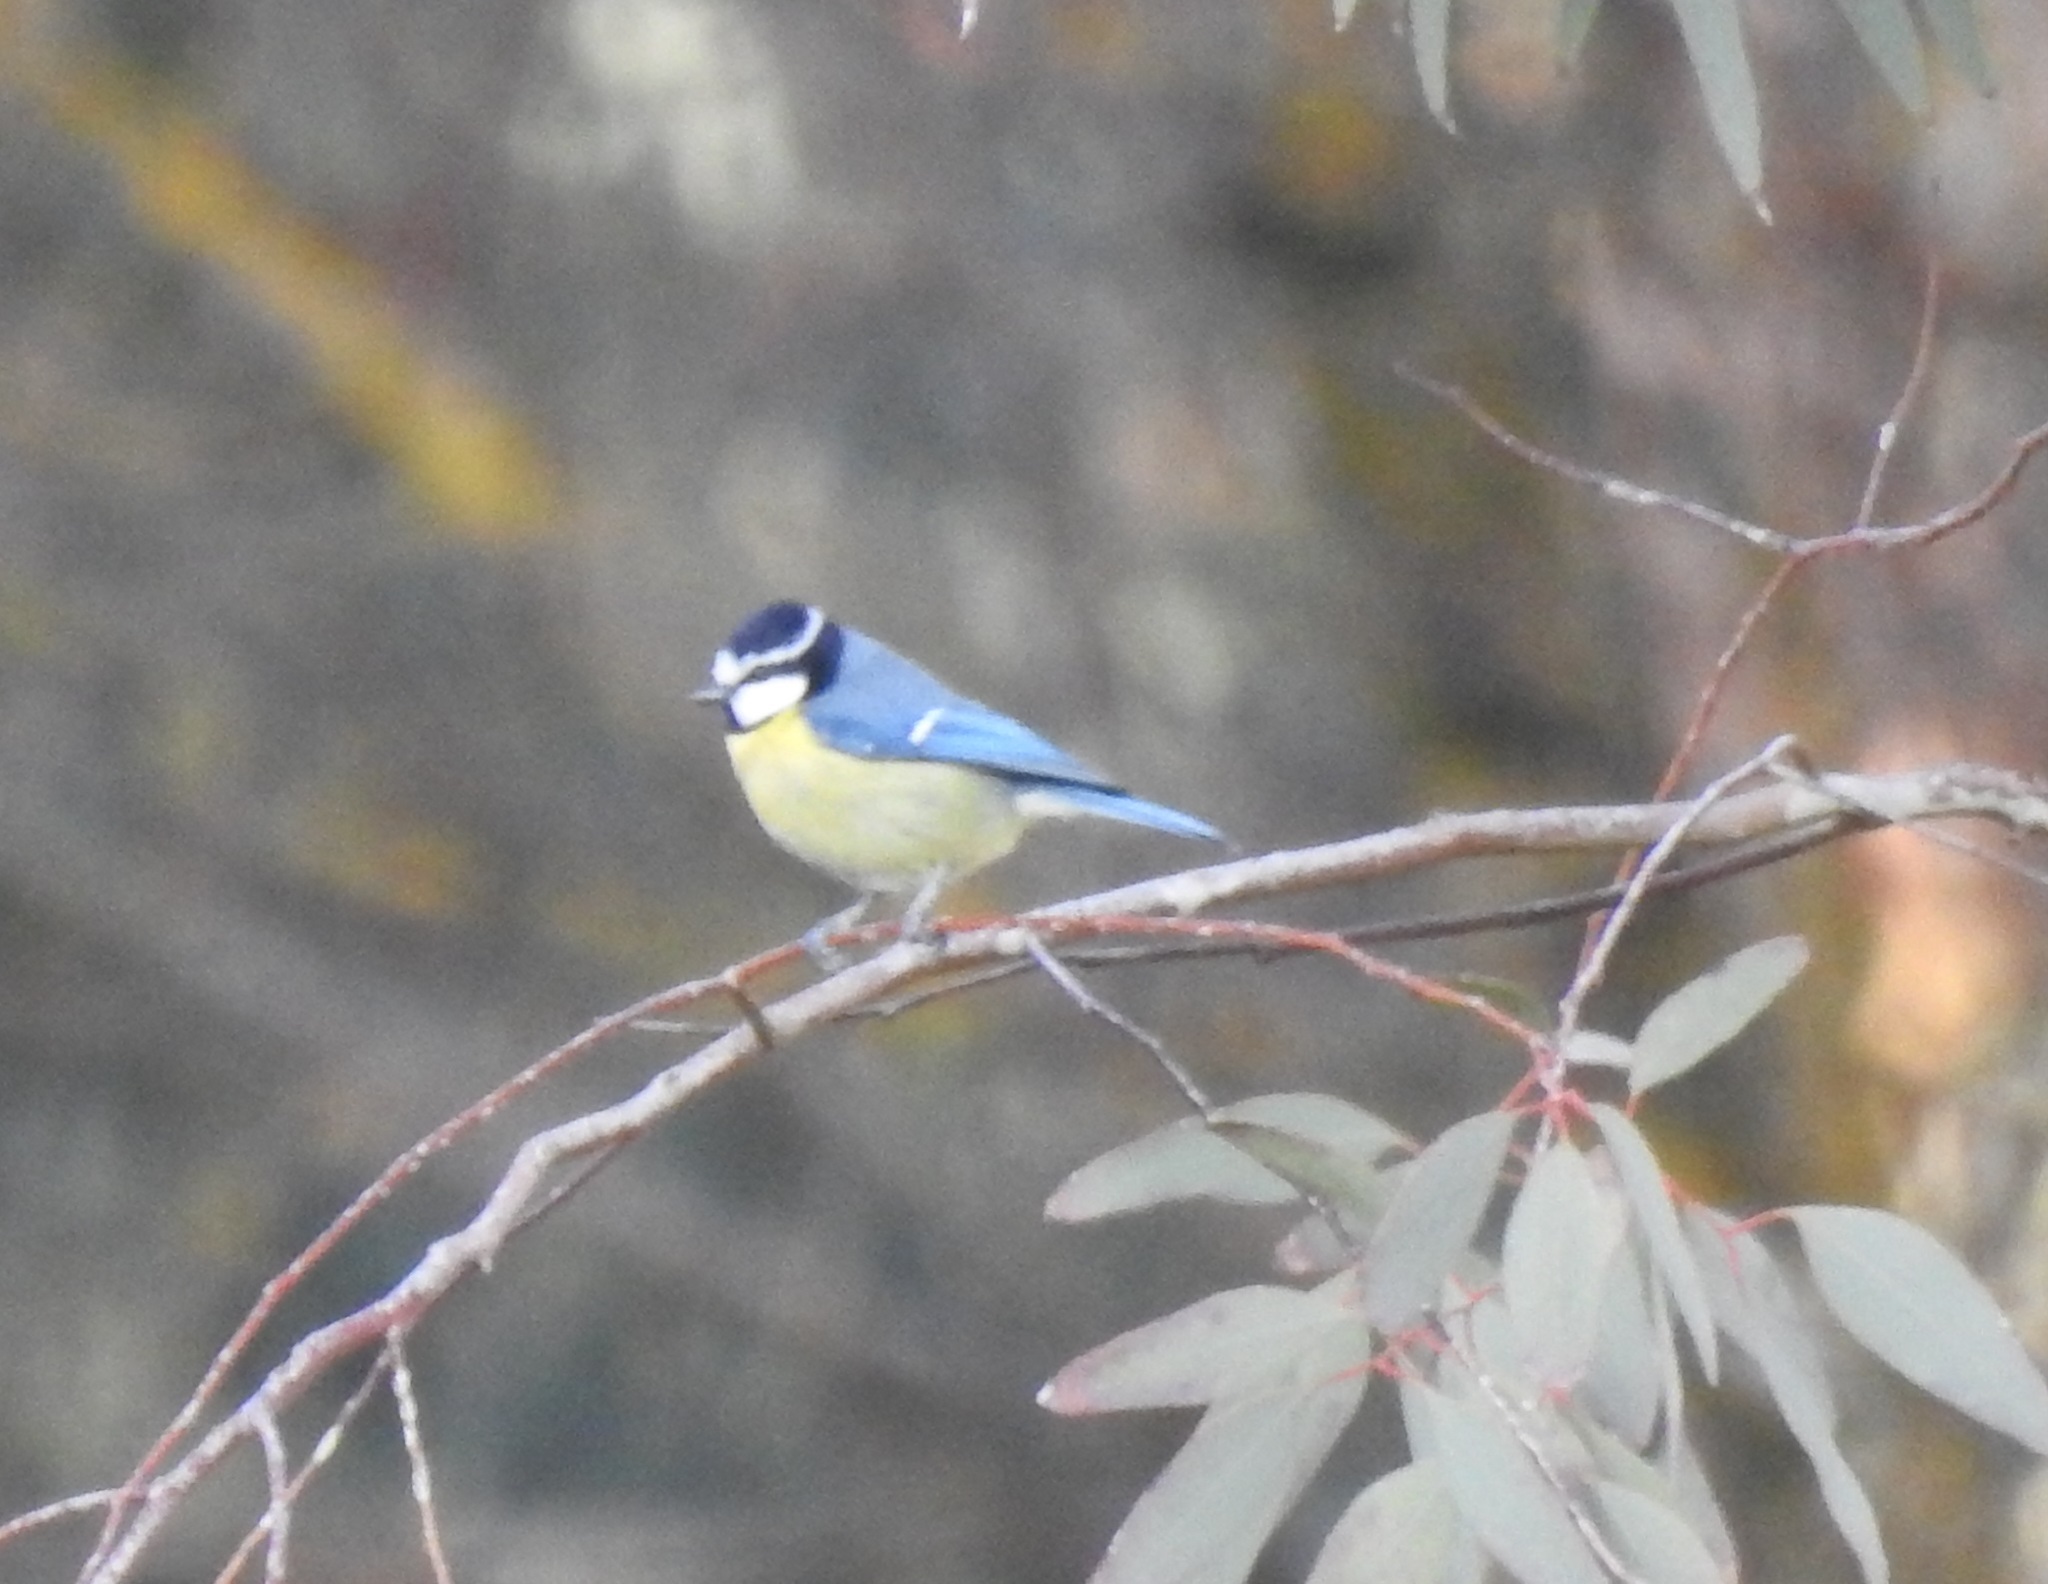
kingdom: Animalia
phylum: Chordata
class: Aves
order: Passeriformes
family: Paridae
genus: Cyanistes
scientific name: Cyanistes teneriffae
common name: African blue tit
